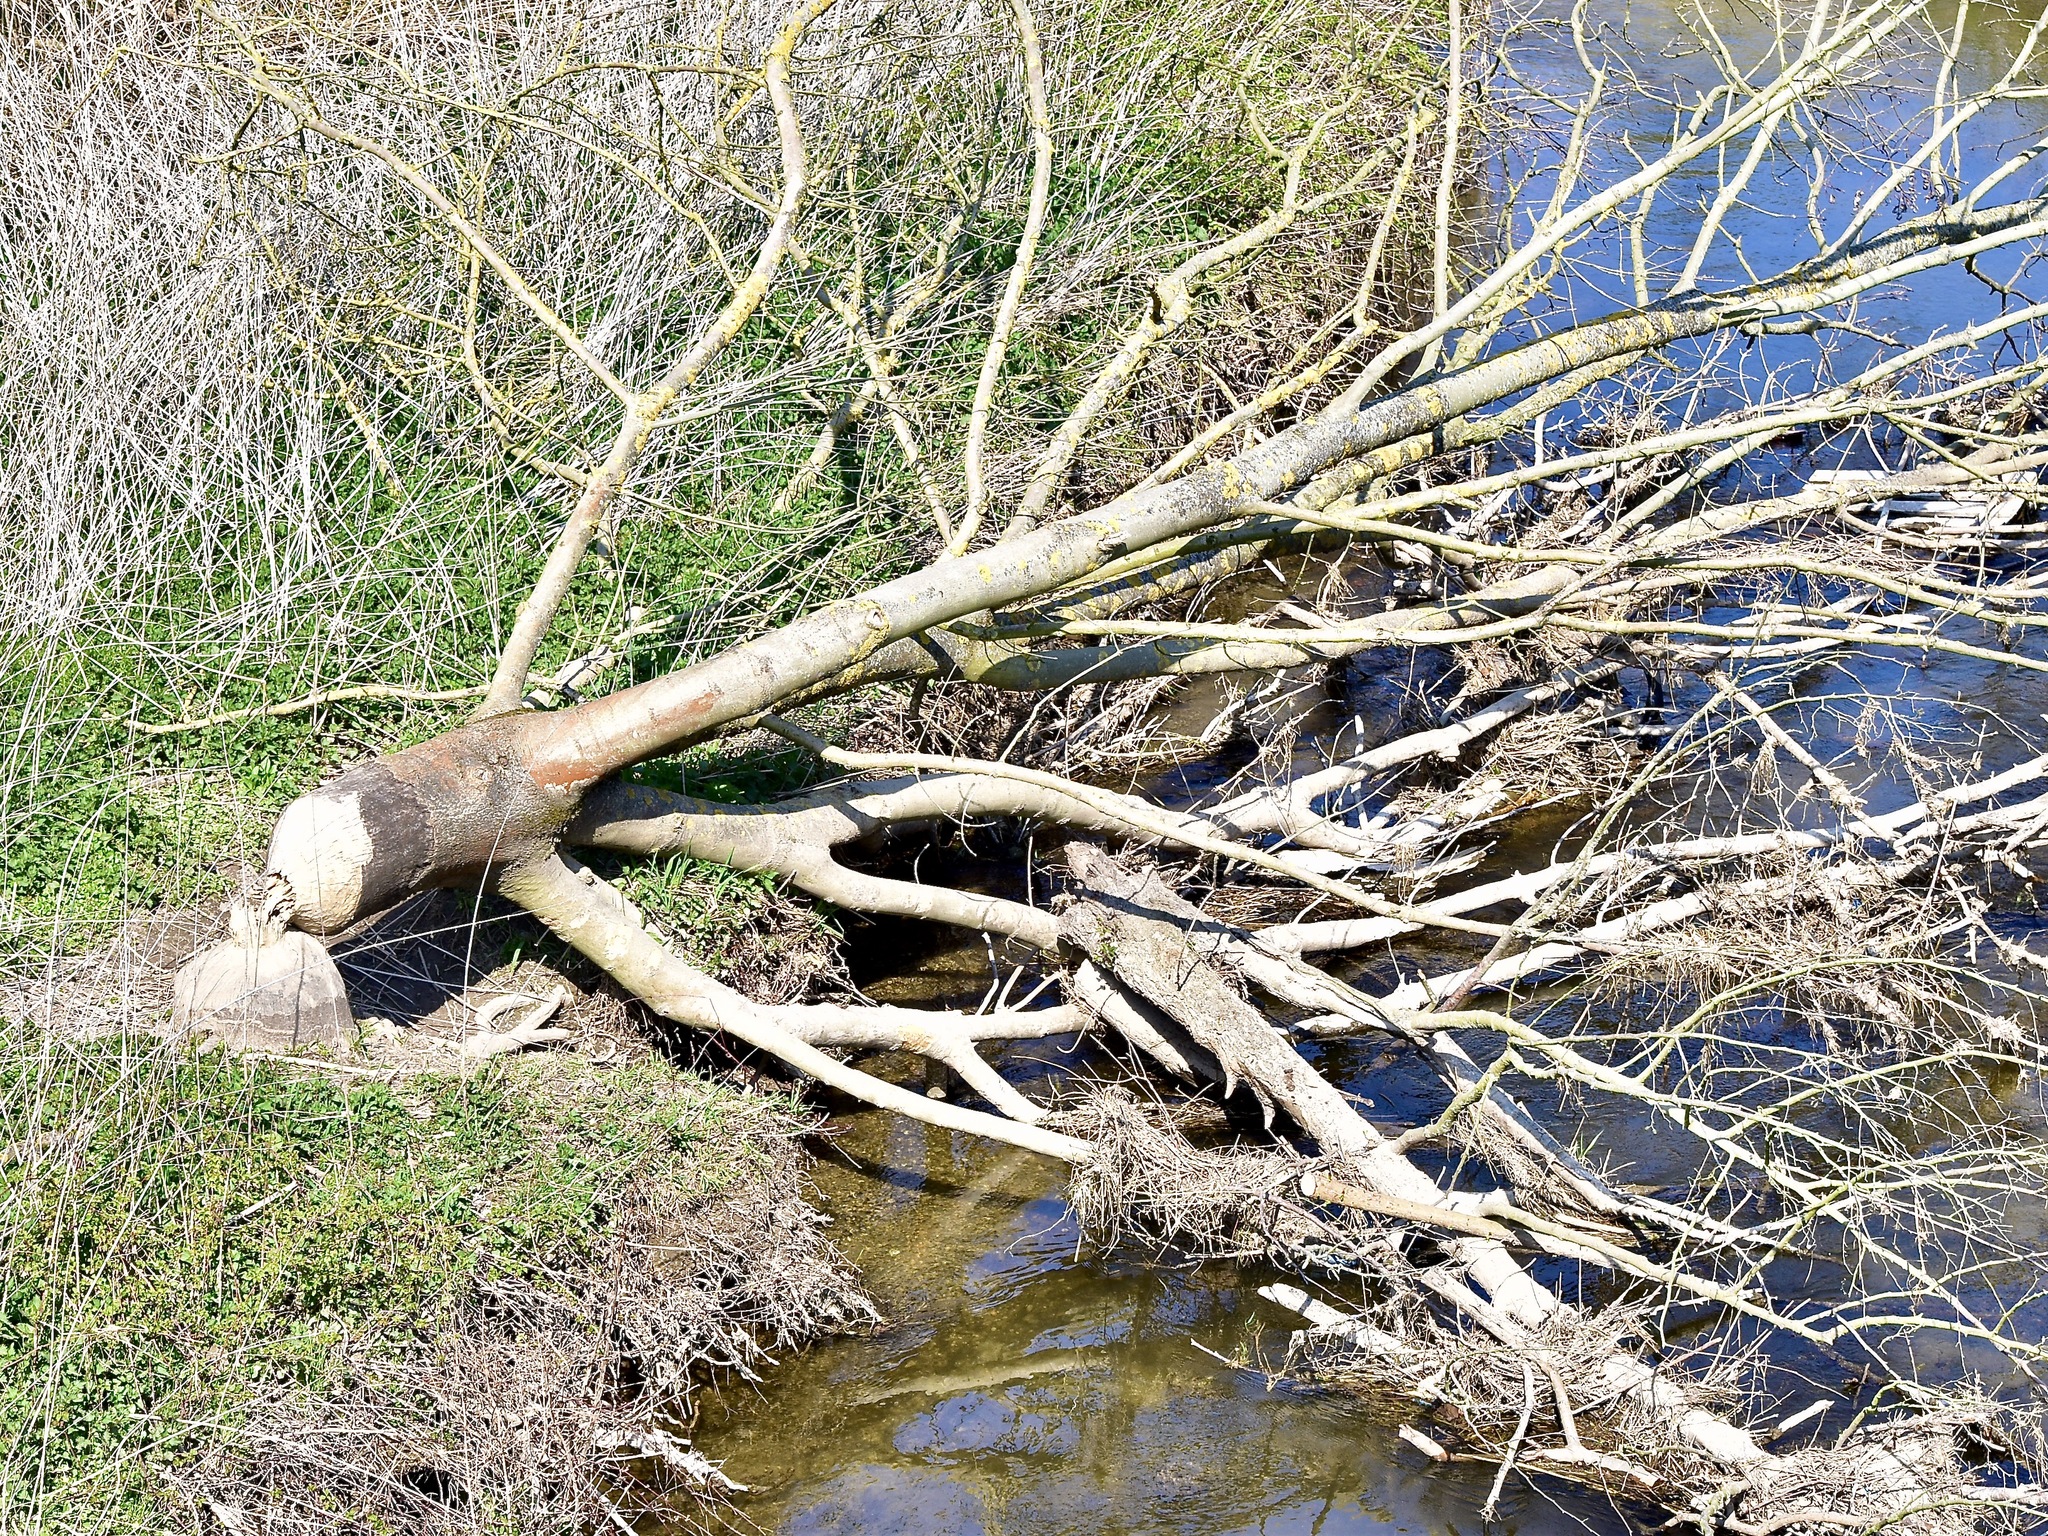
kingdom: Animalia
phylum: Chordata
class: Mammalia
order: Rodentia
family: Castoridae
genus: Castor
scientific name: Castor fiber
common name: Eurasian beaver
